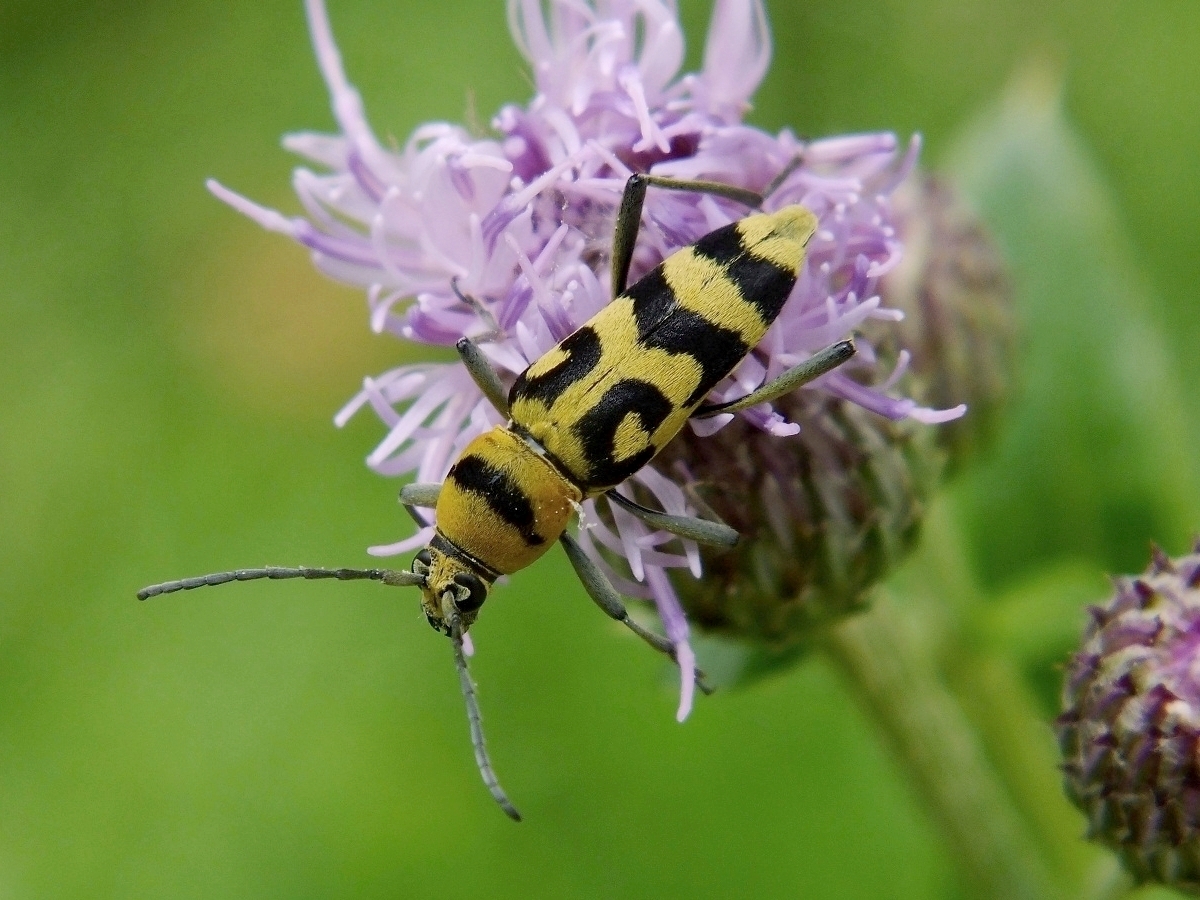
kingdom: Animalia
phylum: Arthropoda
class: Insecta
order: Coleoptera
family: Cerambycidae
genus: Chlorophorus
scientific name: Chlorophorus varius
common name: Grape wood borer
